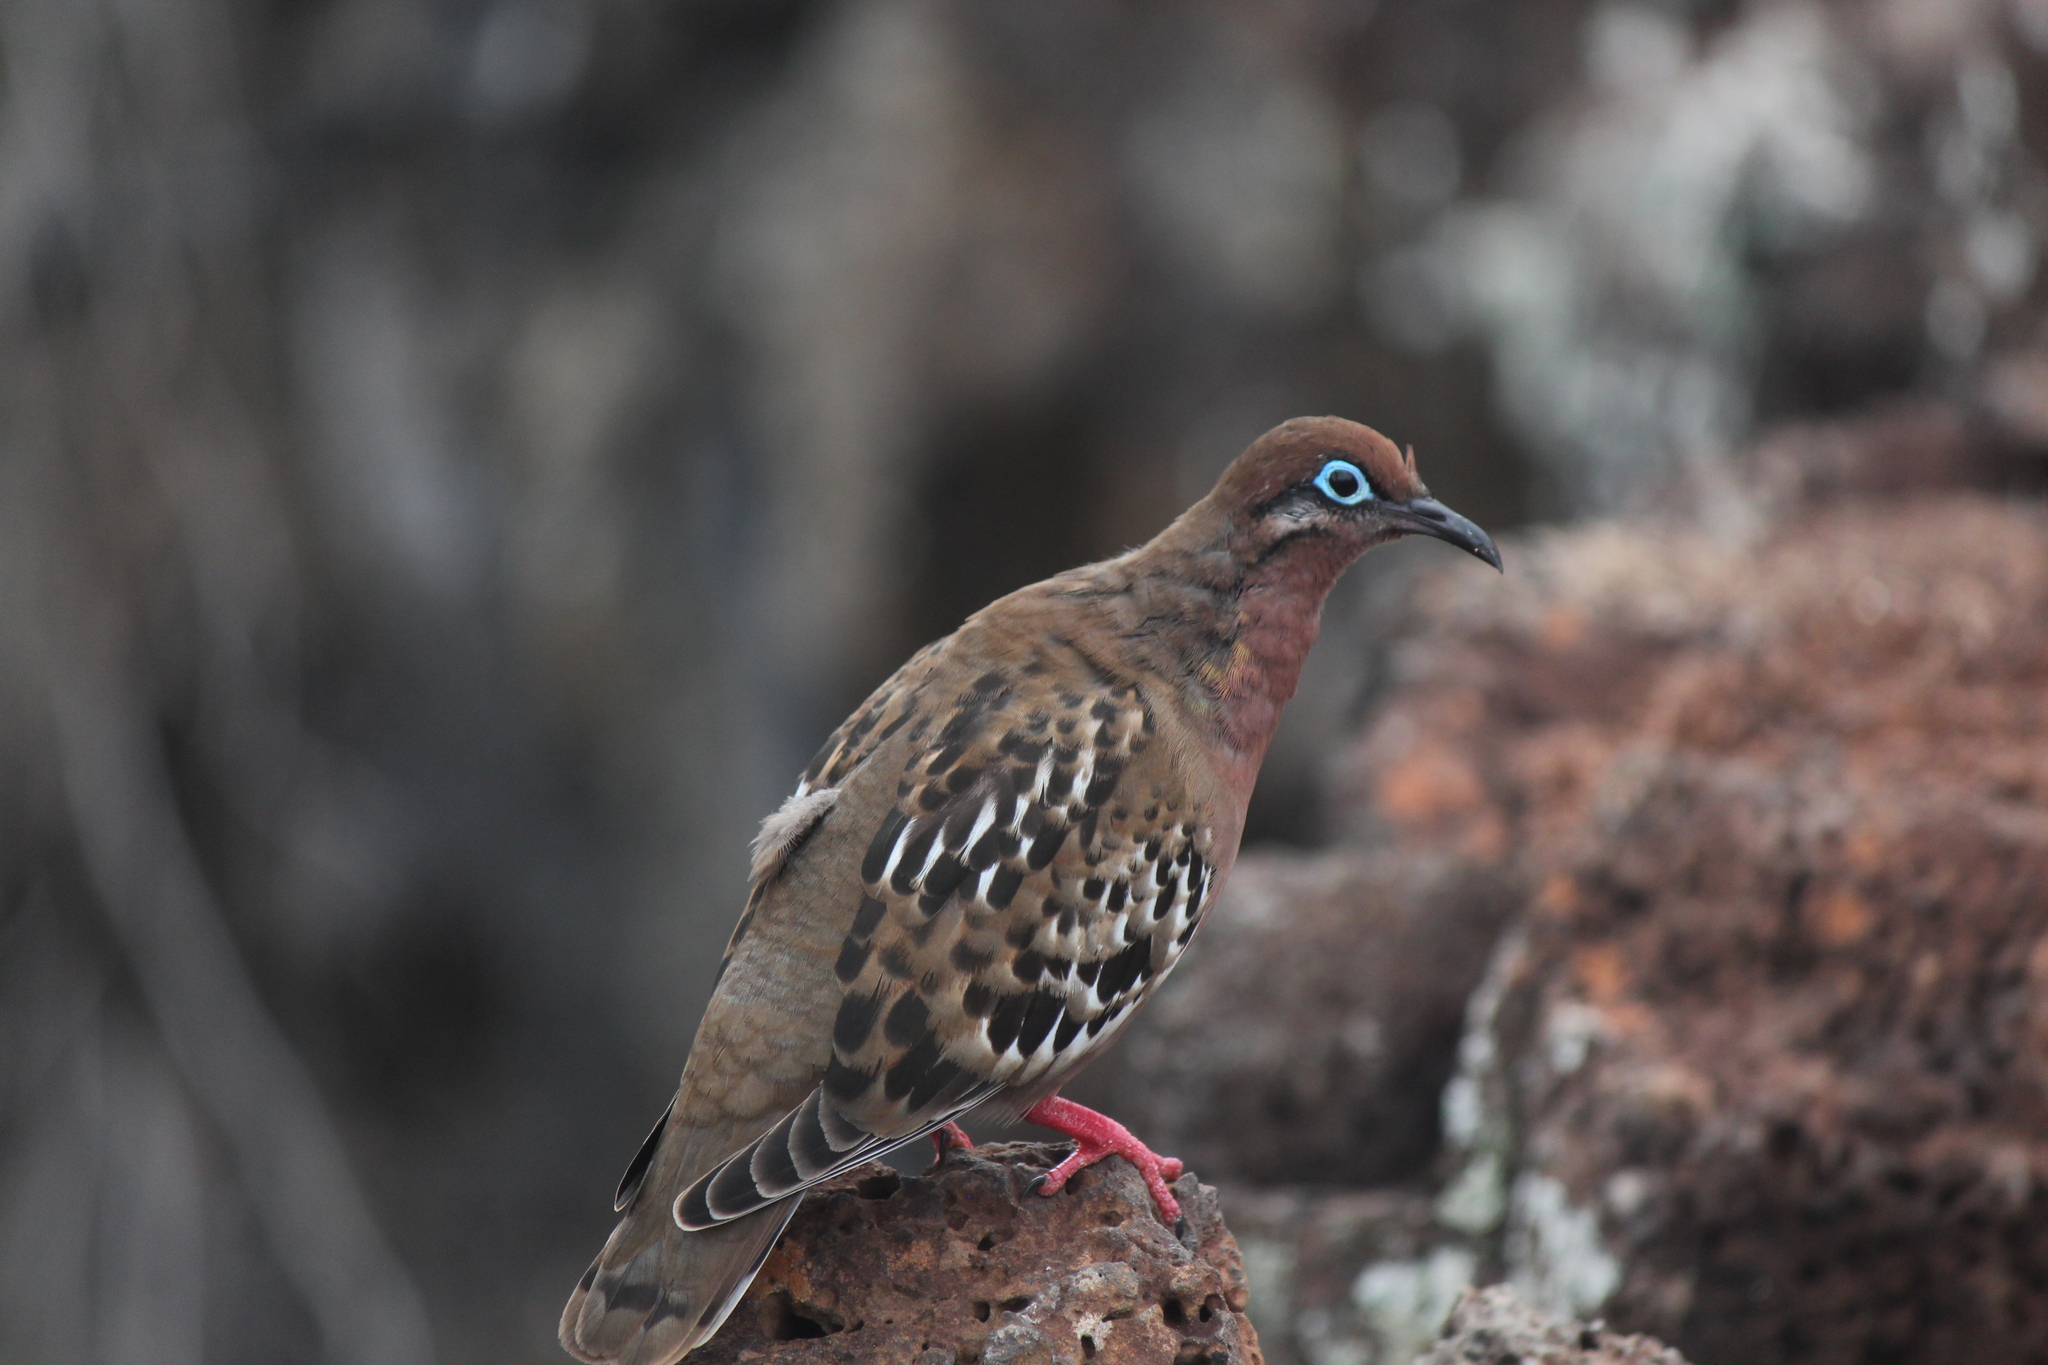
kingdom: Animalia
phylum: Chordata
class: Aves
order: Columbiformes
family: Columbidae
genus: Zenaida
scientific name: Zenaida galapagoensis
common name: Galapagos dove
